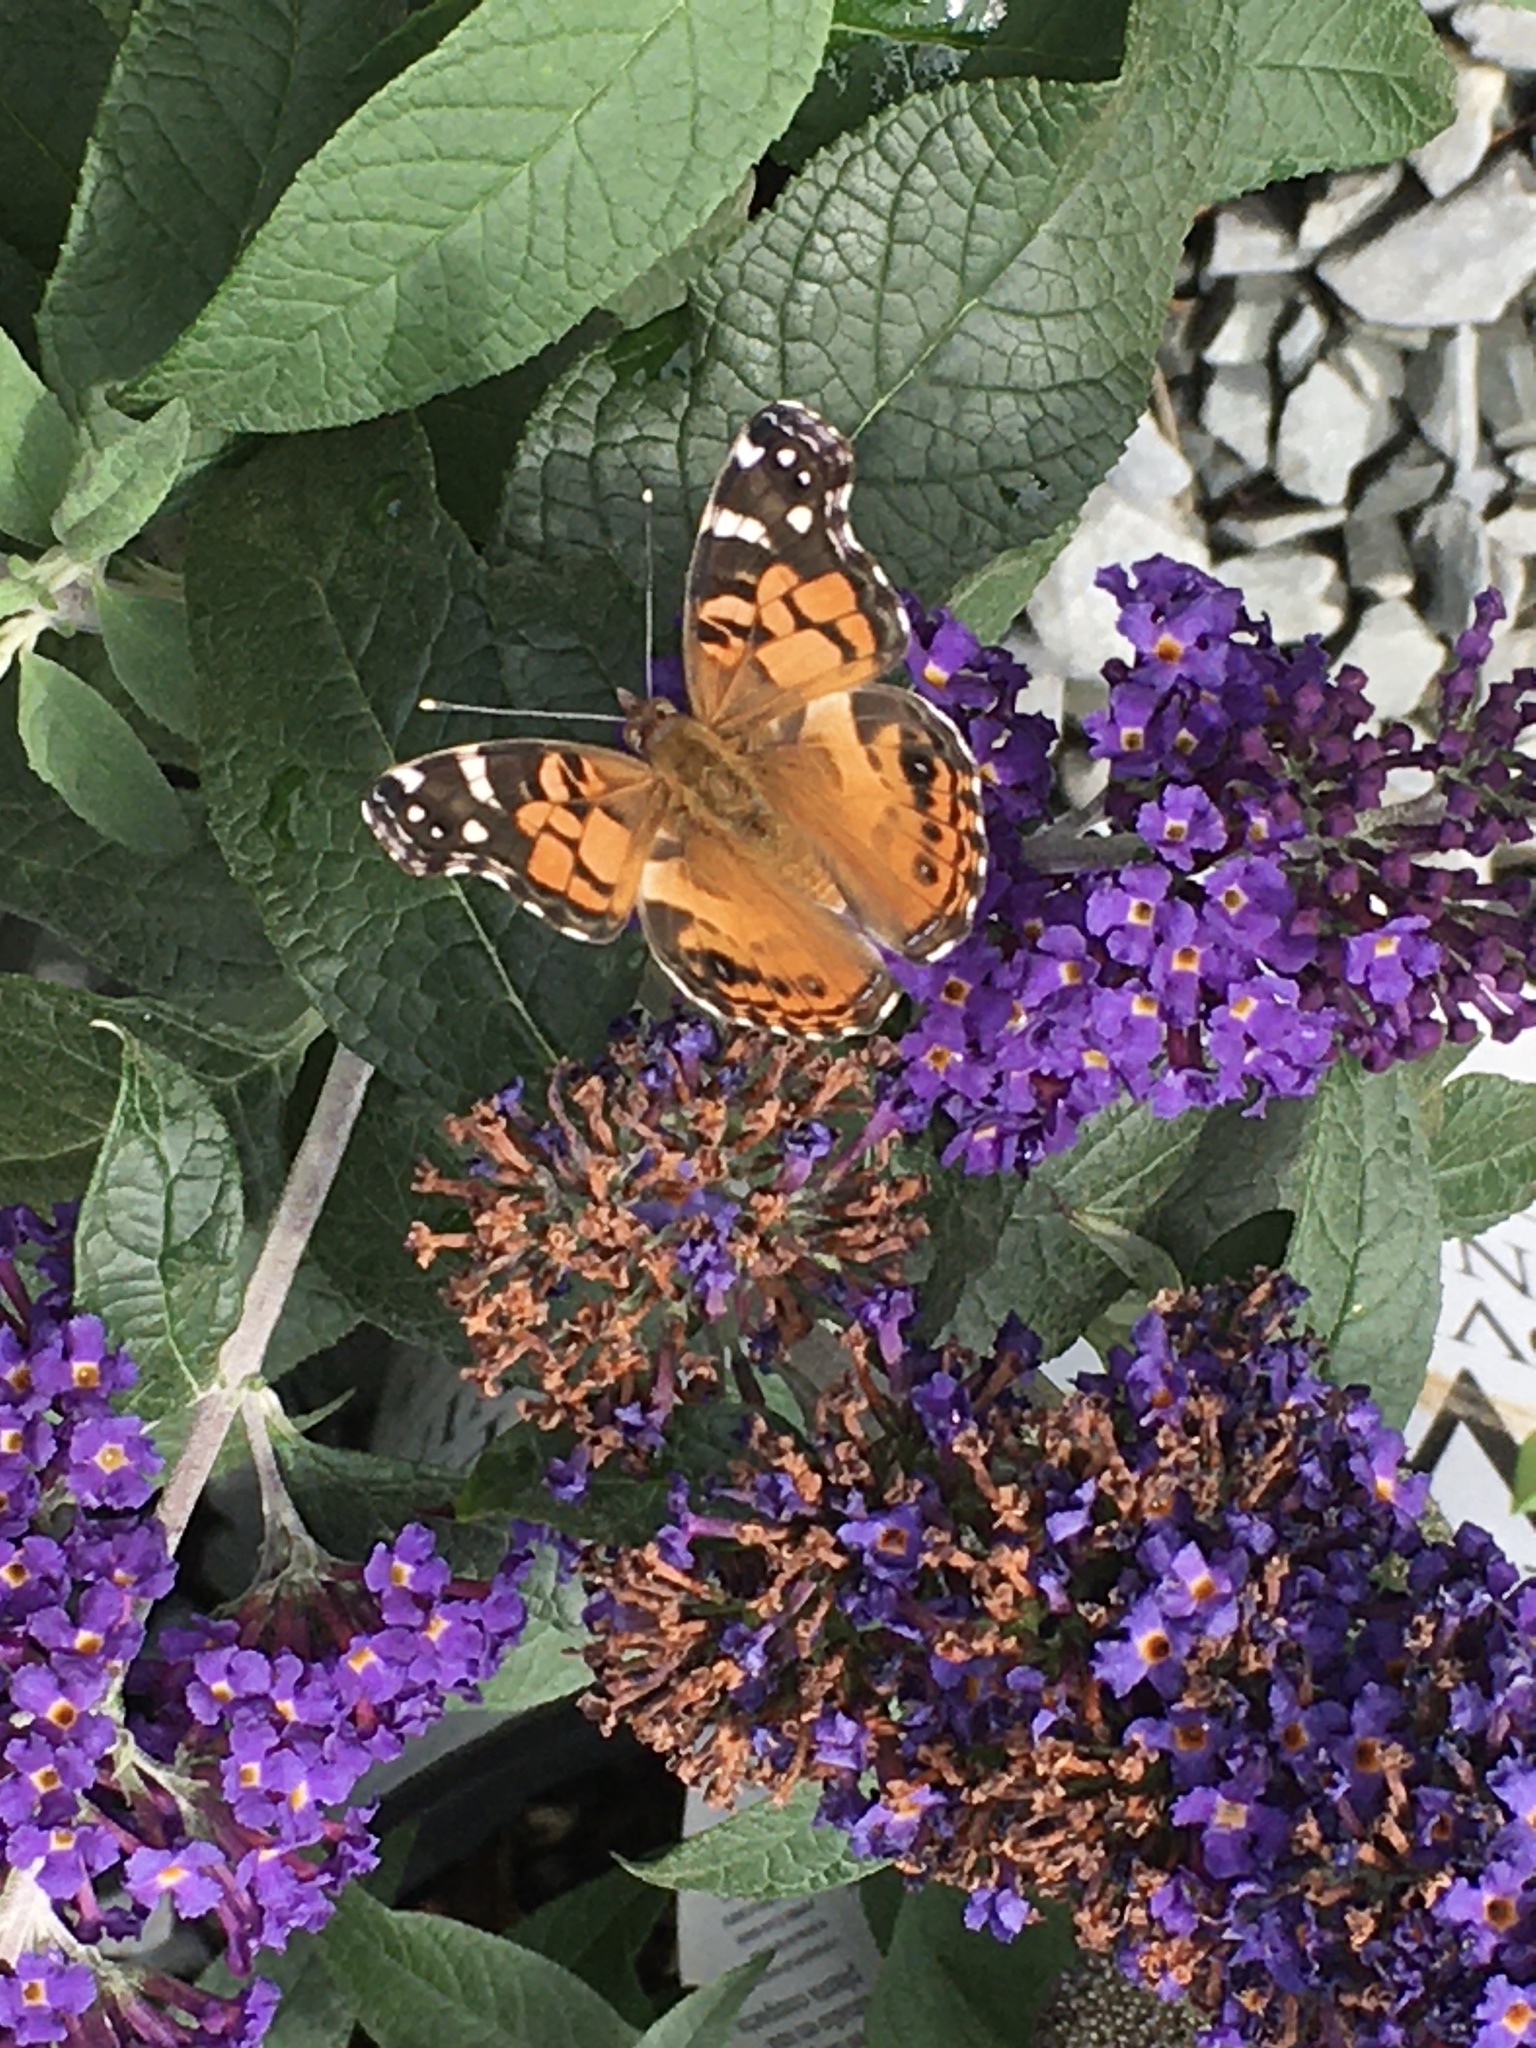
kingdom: Animalia
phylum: Arthropoda
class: Insecta
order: Lepidoptera
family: Nymphalidae
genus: Vanessa
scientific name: Vanessa virginiensis
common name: American lady
